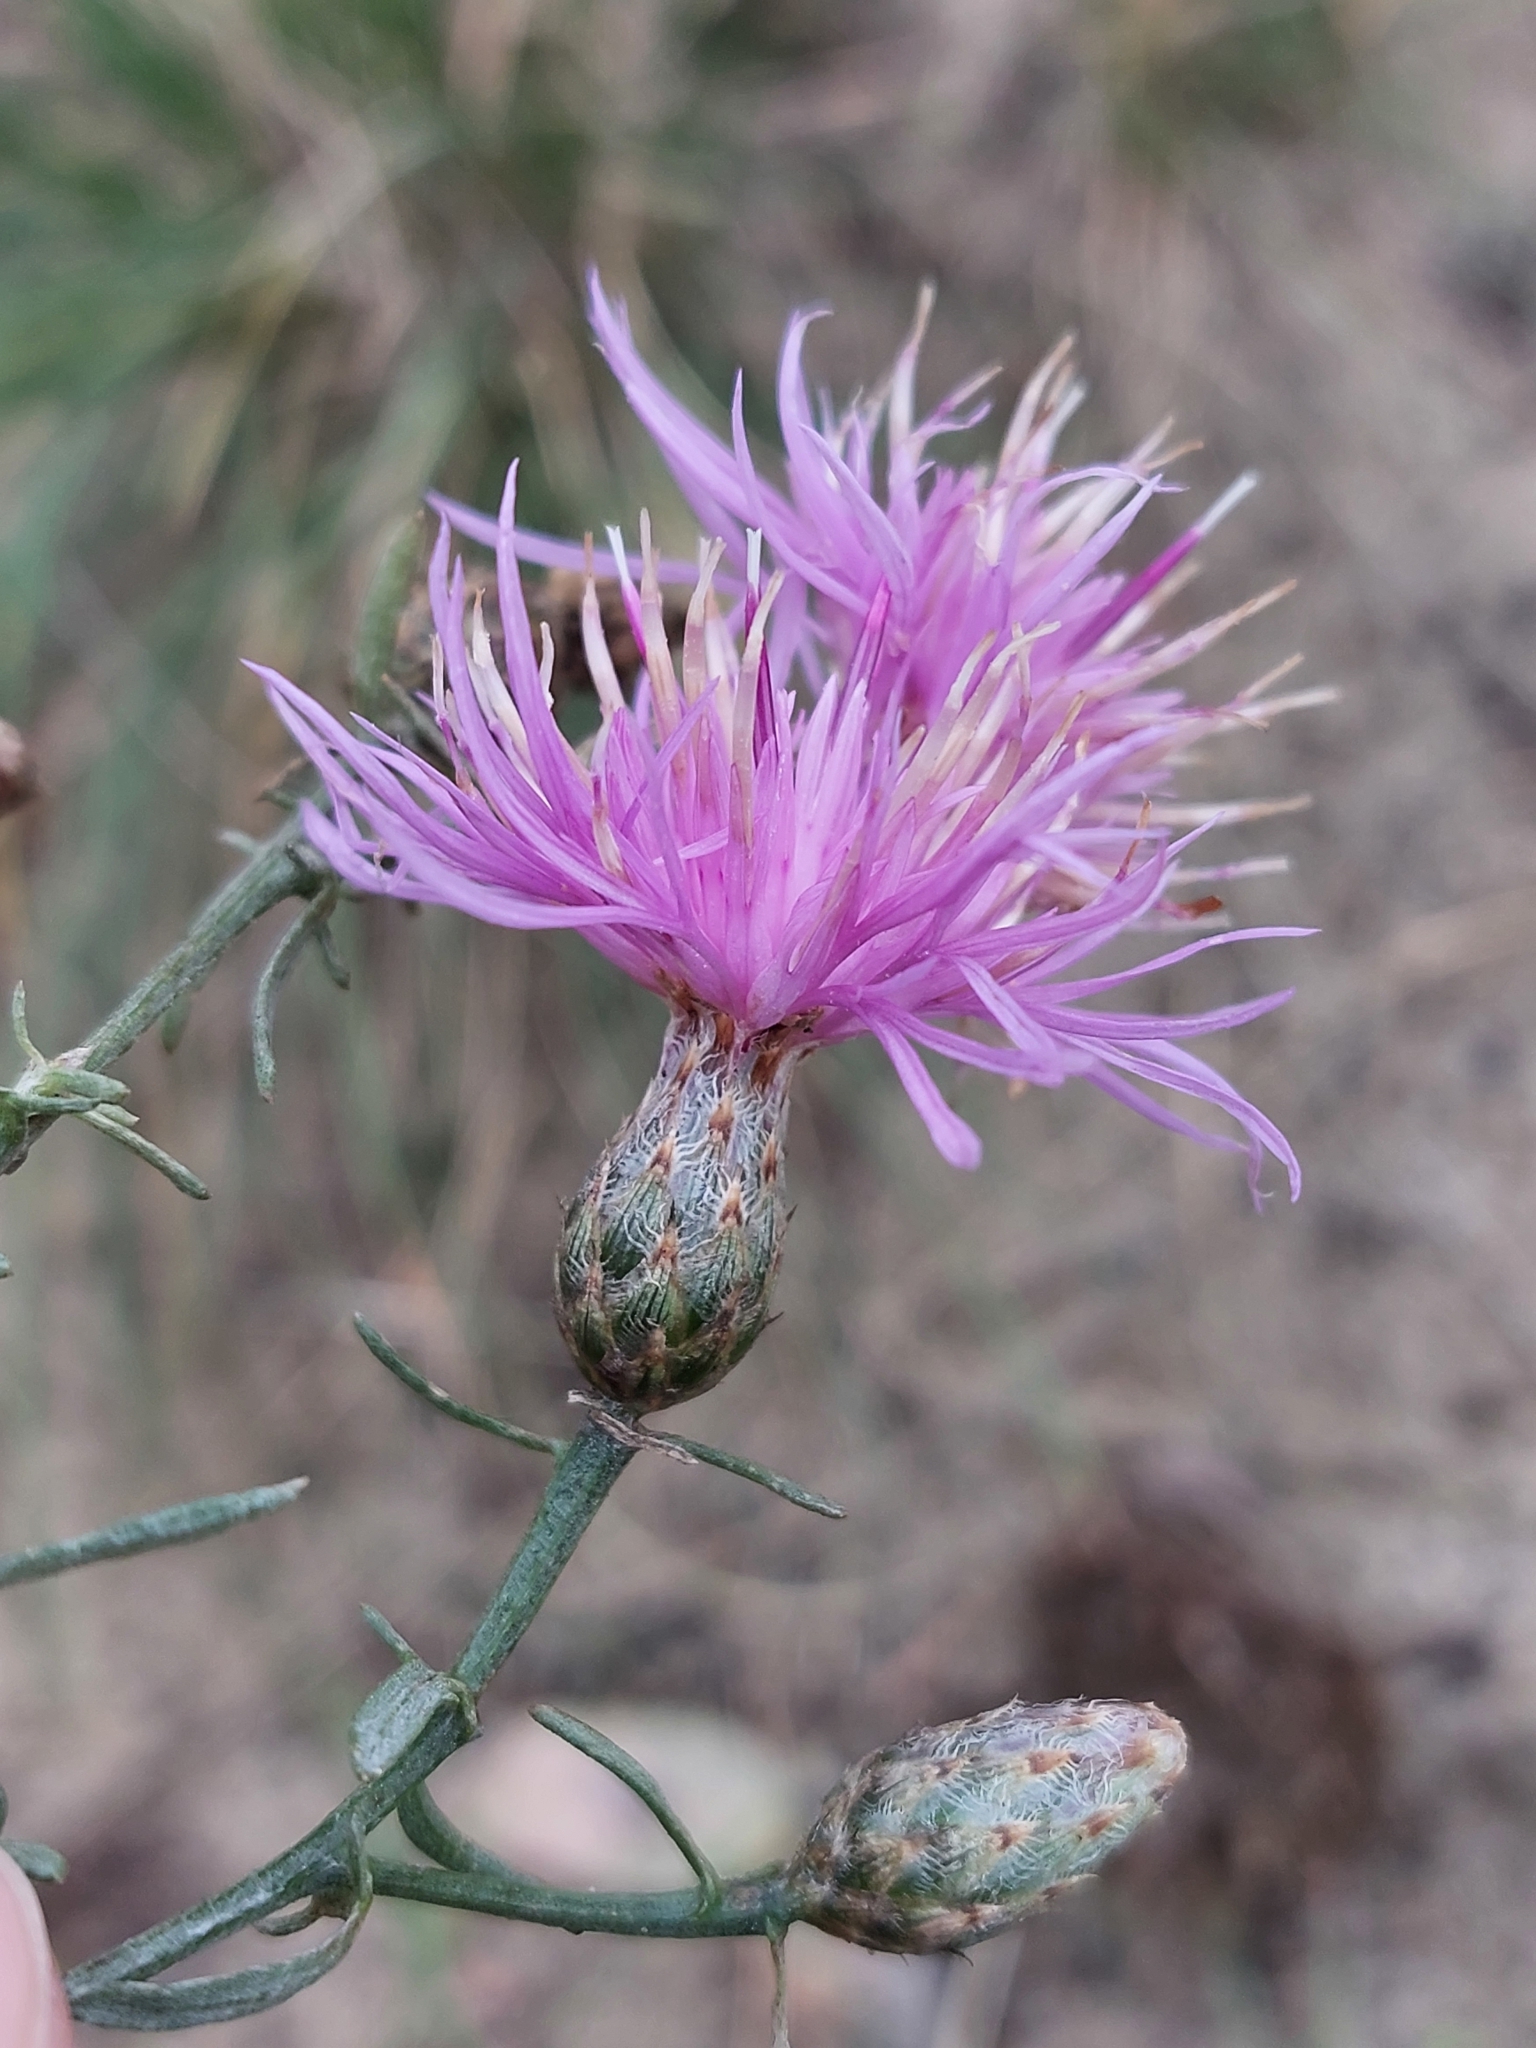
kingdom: Plantae
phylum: Tracheophyta
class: Magnoliopsida
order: Asterales
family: Asteraceae
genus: Centaurea
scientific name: Centaurea borysthenica
